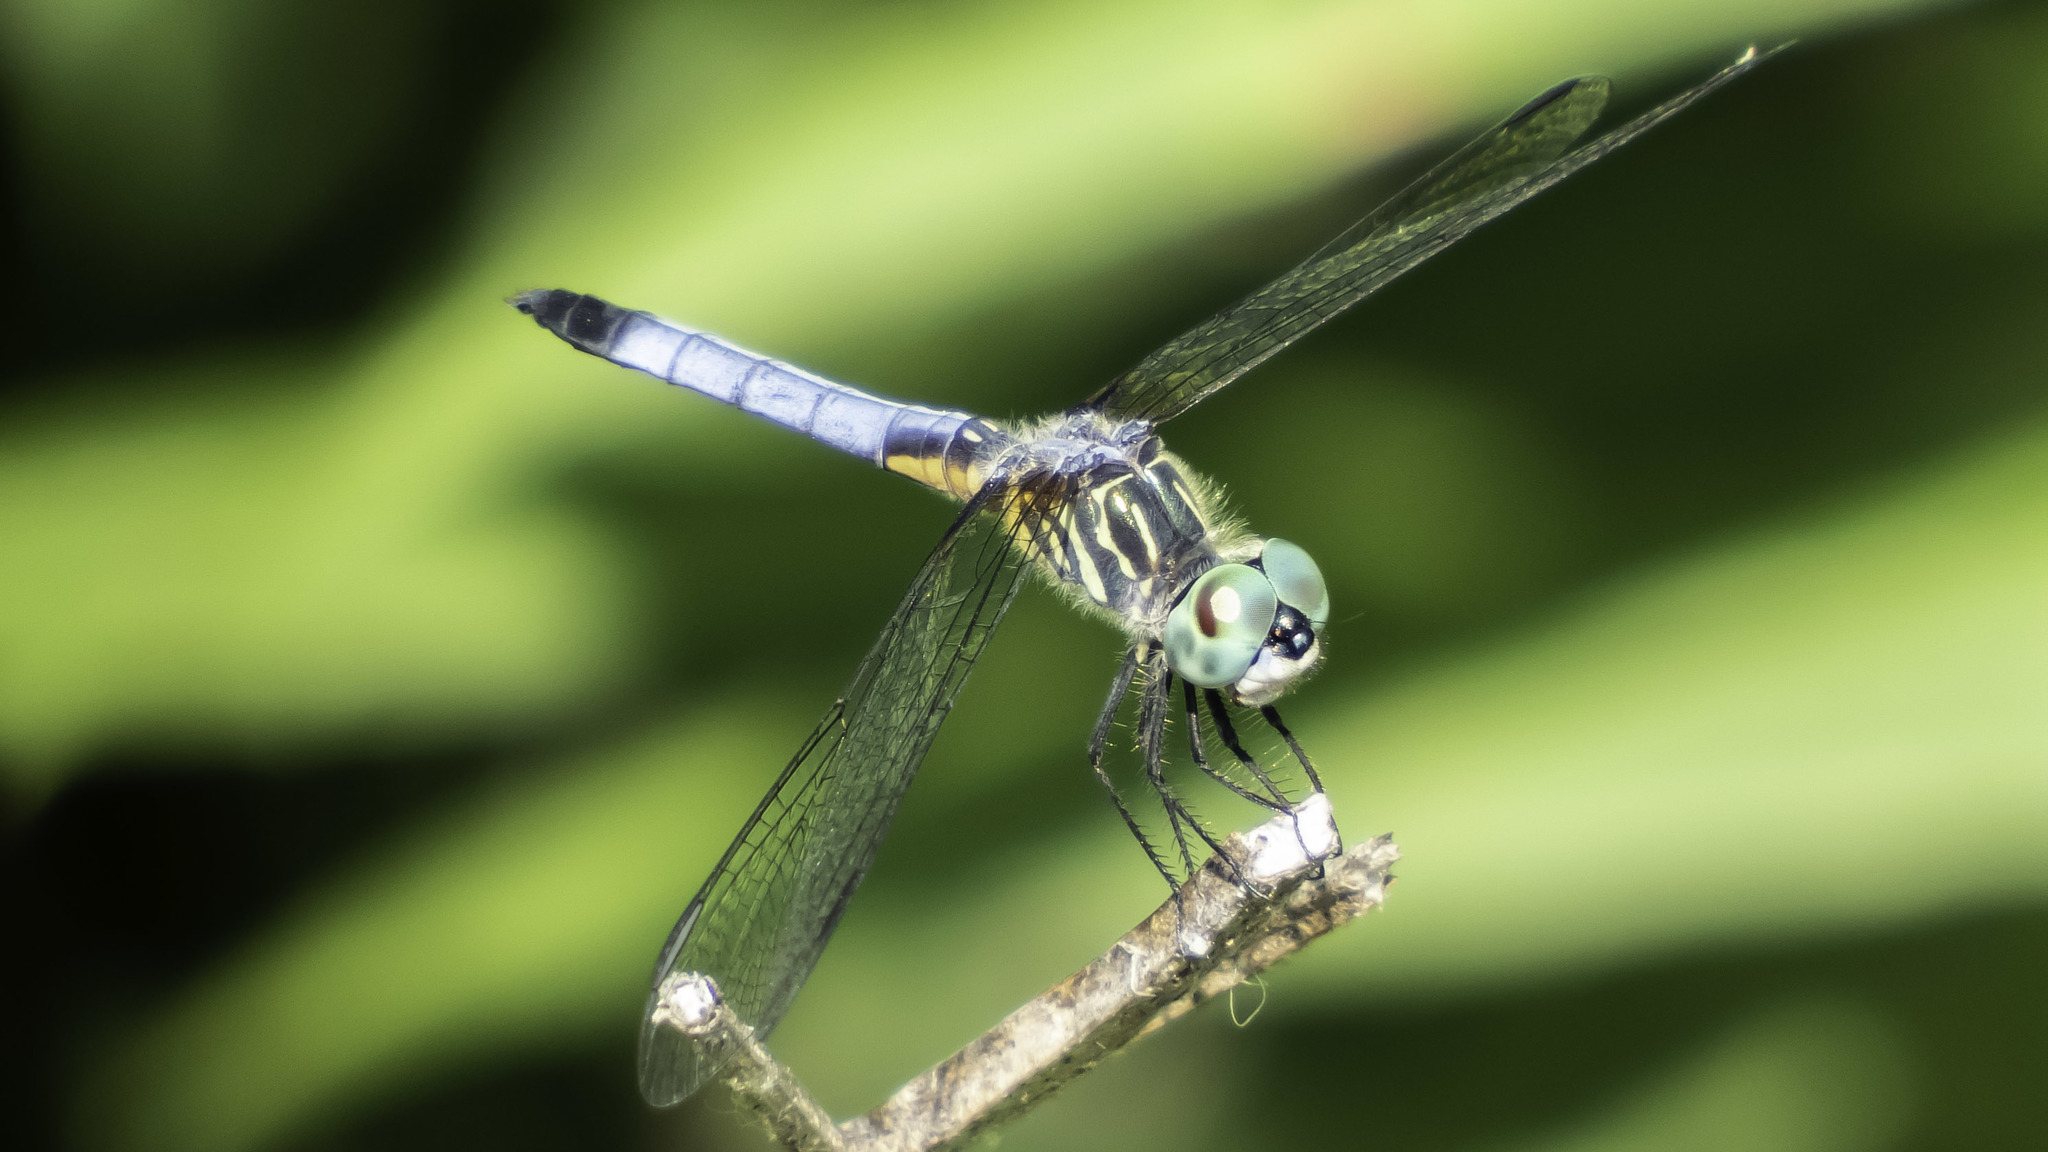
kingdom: Animalia
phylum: Arthropoda
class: Insecta
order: Odonata
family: Libellulidae
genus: Pachydiplax
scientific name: Pachydiplax longipennis
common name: Blue dasher
